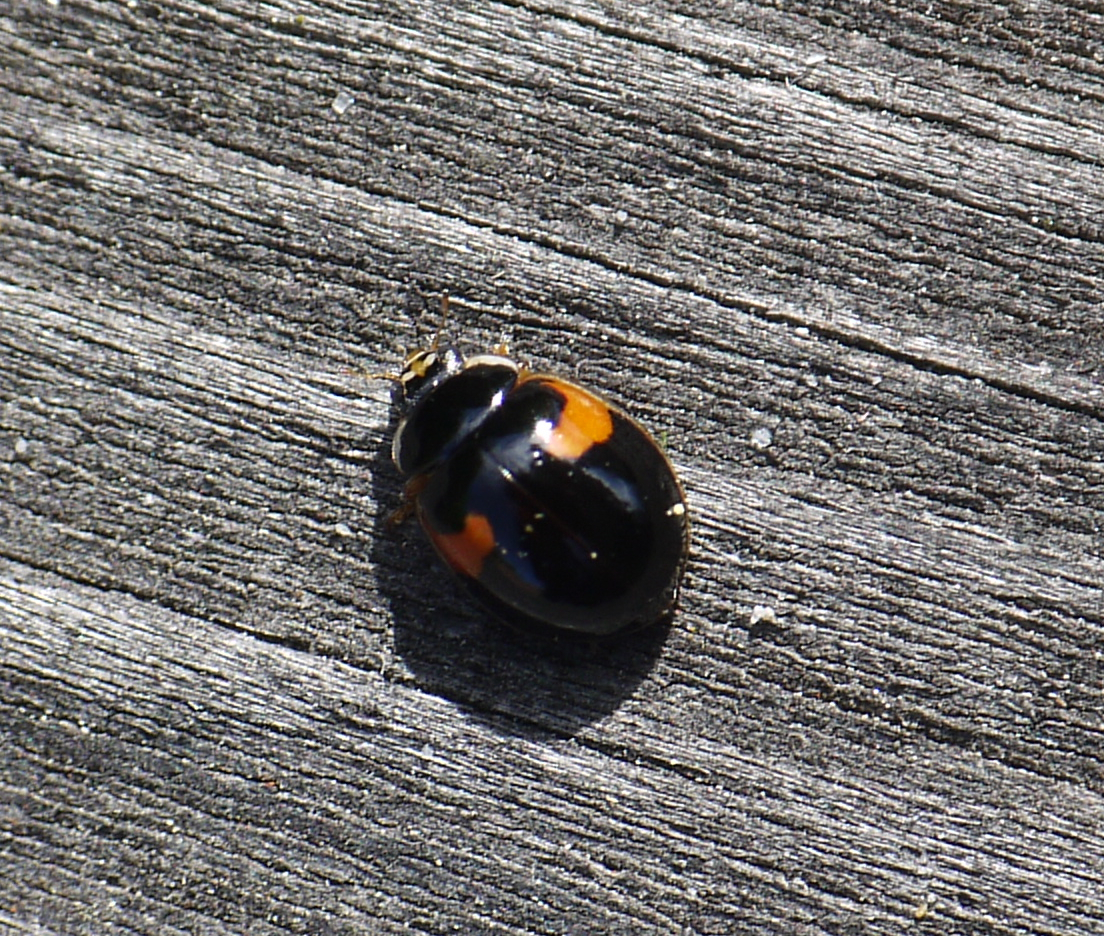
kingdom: Animalia
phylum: Arthropoda
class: Insecta
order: Coleoptera
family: Coccinellidae
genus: Adalia
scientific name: Adalia decempunctata
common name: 10-spot ladybird
